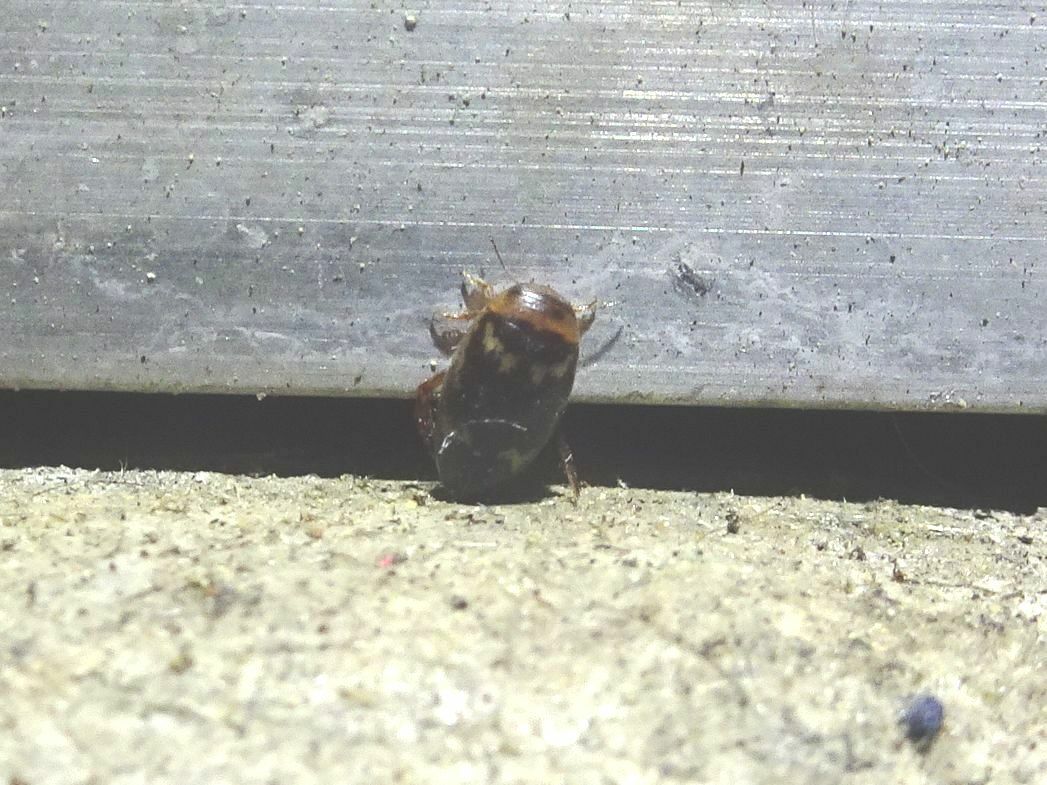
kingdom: Animalia
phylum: Arthropoda
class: Insecta
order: Coleoptera
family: Dytiscidae
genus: Laccophilus
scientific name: Laccophilus poecilus
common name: Sussex diving beetle
